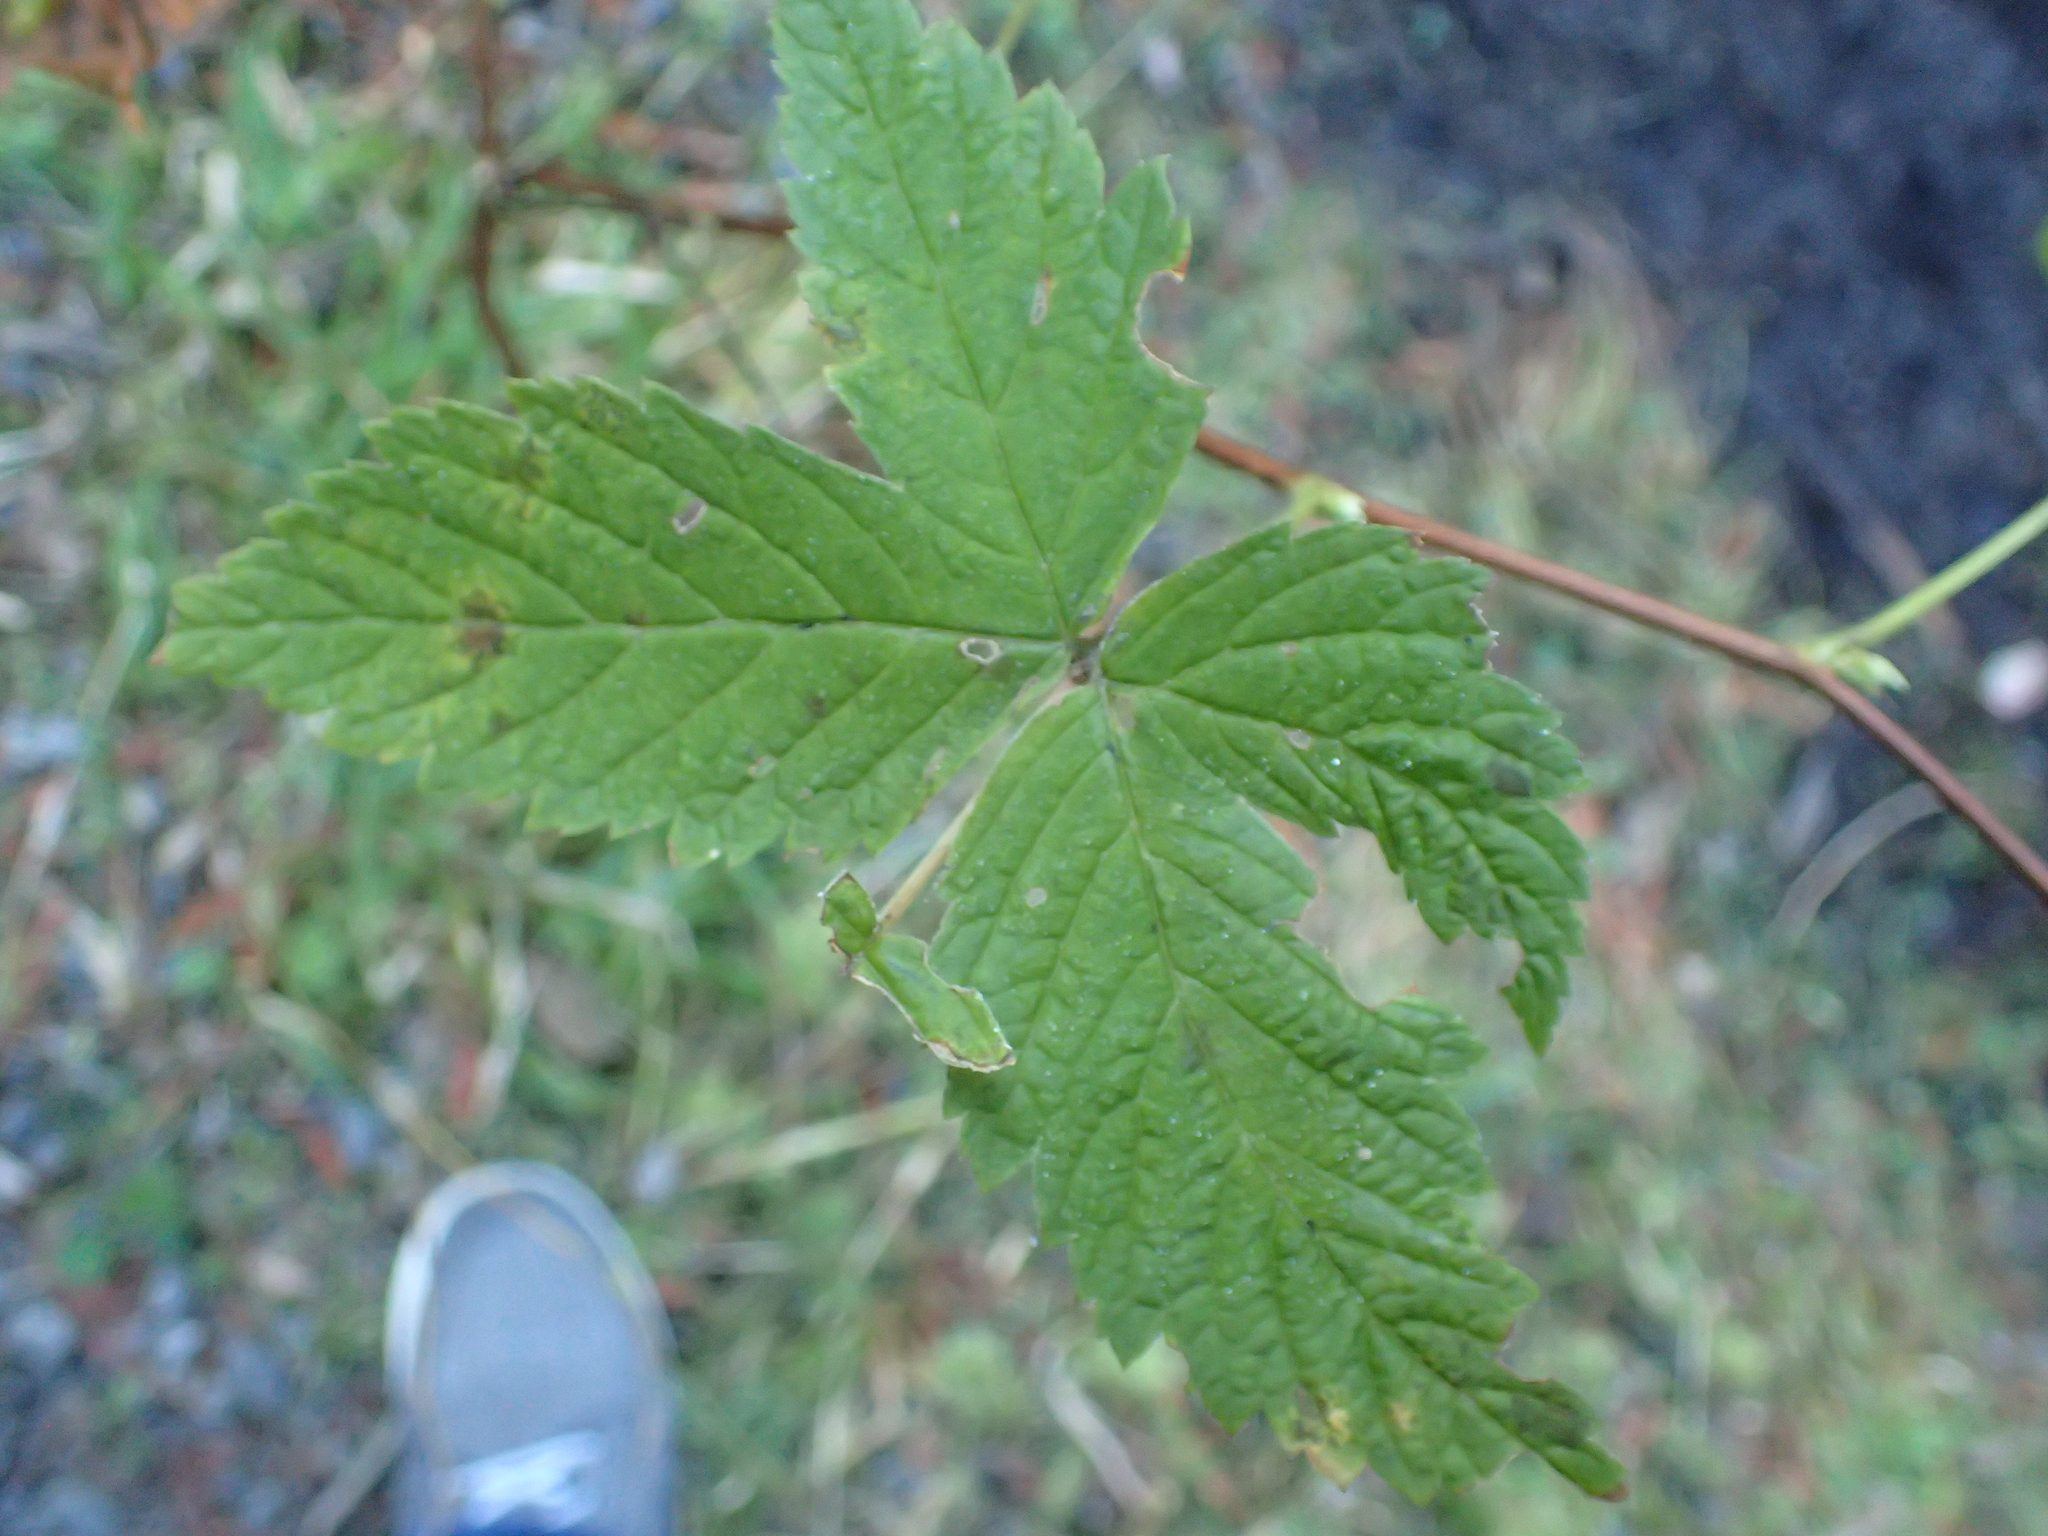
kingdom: Plantae
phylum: Tracheophyta
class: Magnoliopsida
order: Rosales
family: Rosaceae
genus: Rubus
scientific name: Rubus spectabilis
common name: Salmonberry
